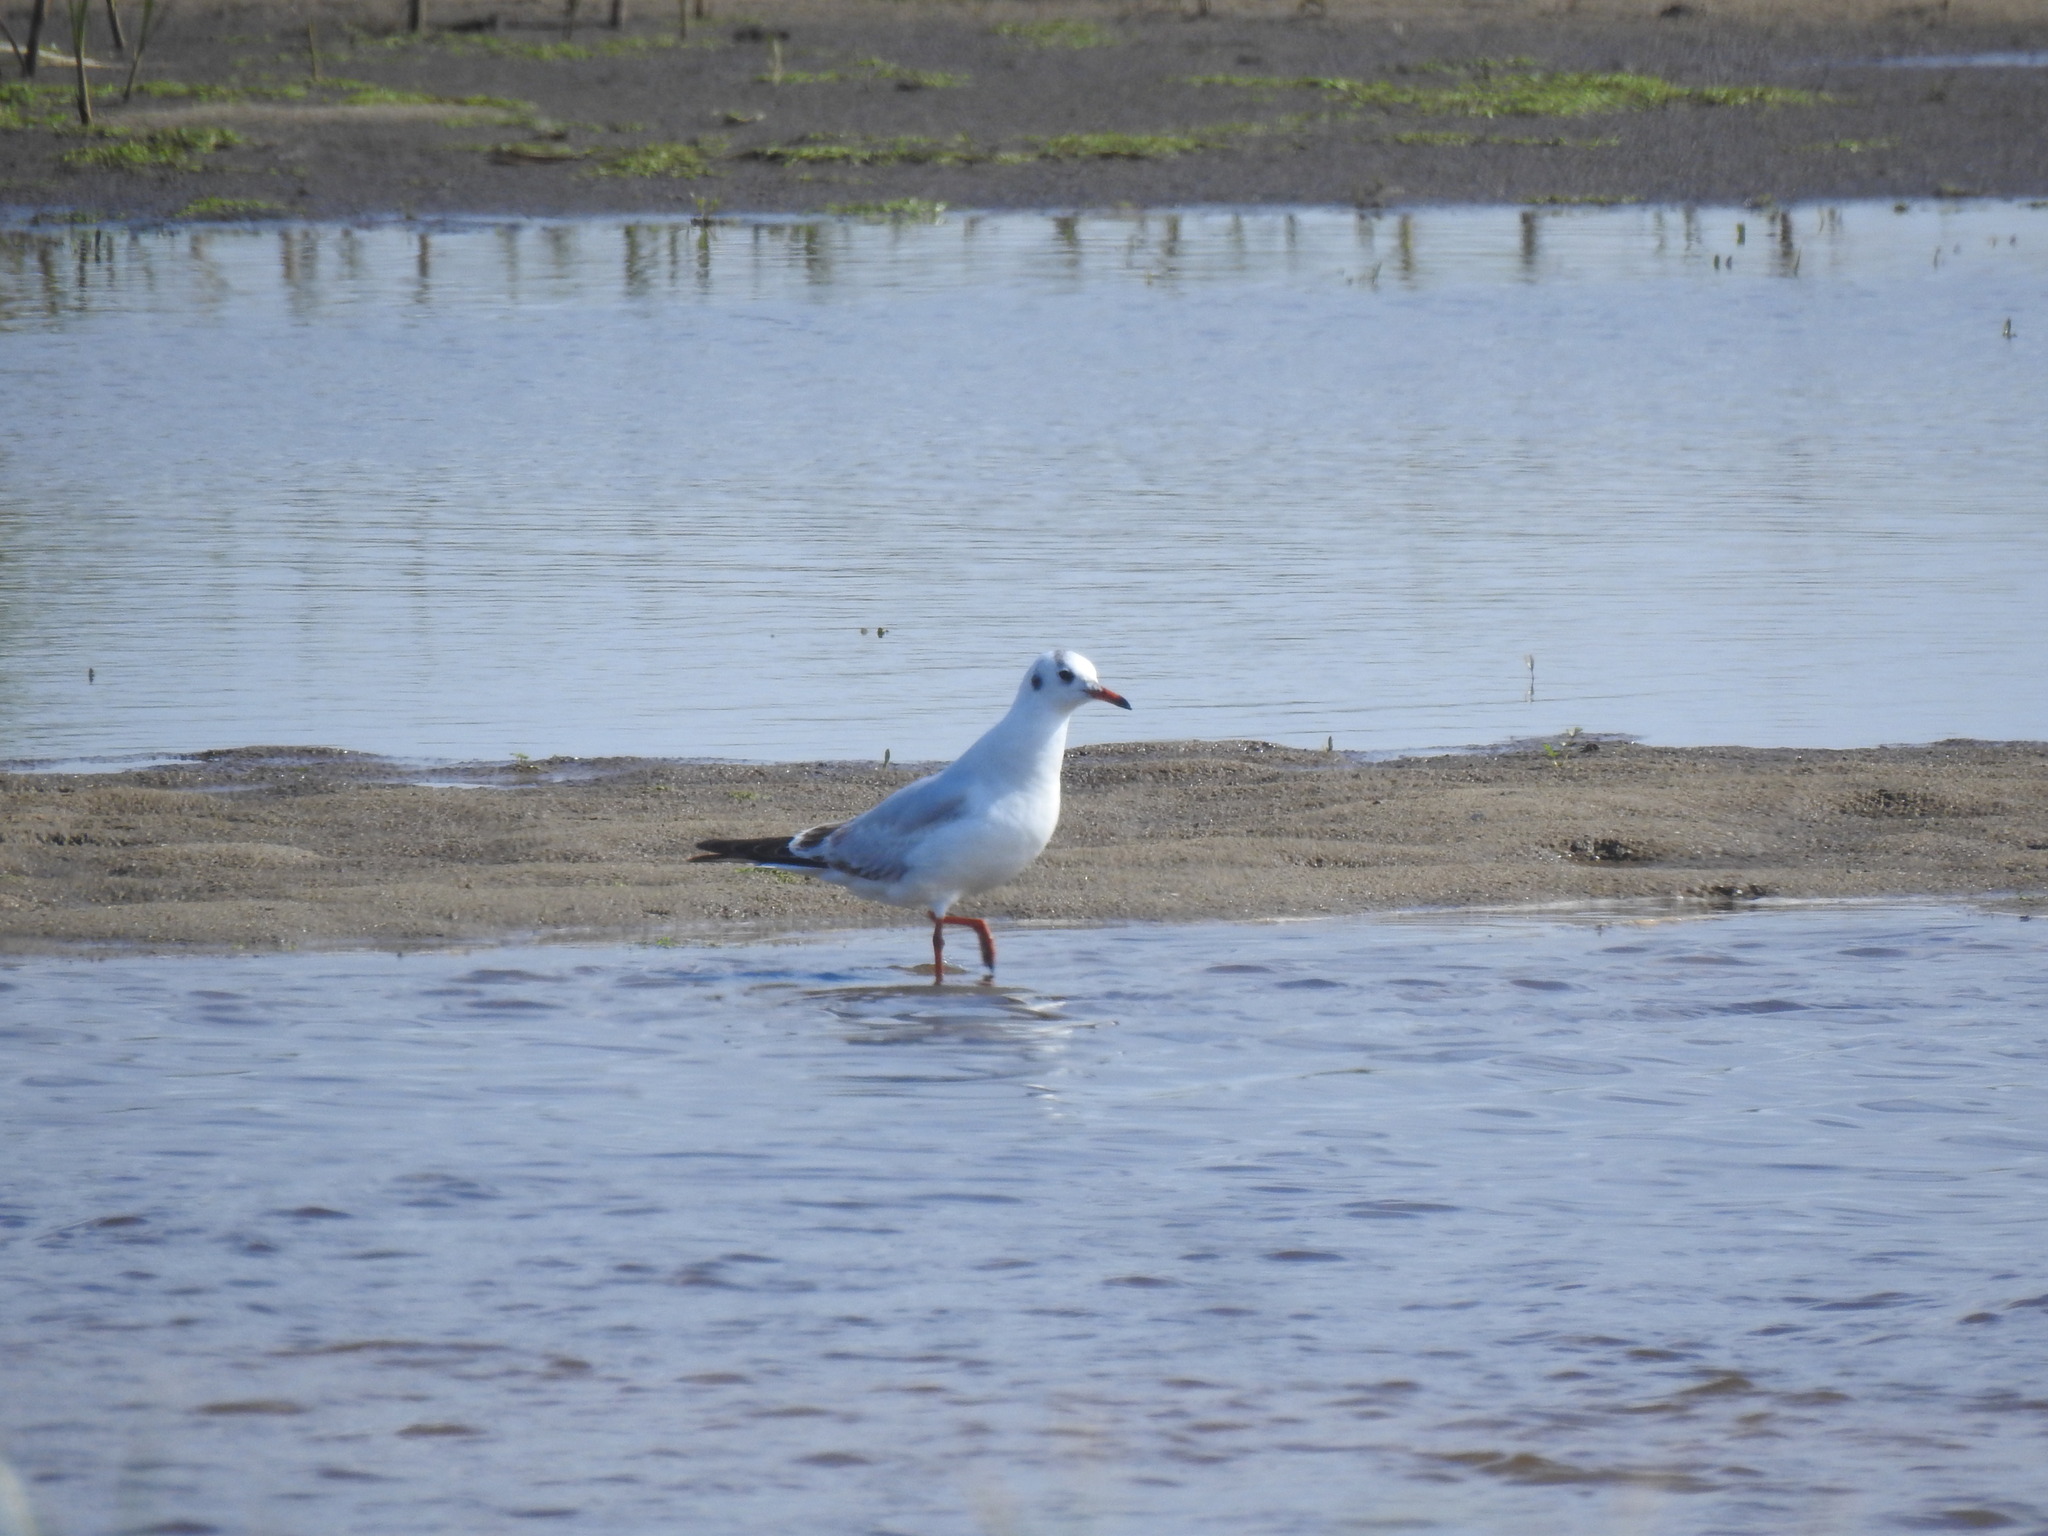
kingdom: Animalia
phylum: Chordata
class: Aves
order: Charadriiformes
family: Laridae
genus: Chroicocephalus
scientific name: Chroicocephalus ridibundus
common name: Black-headed gull
